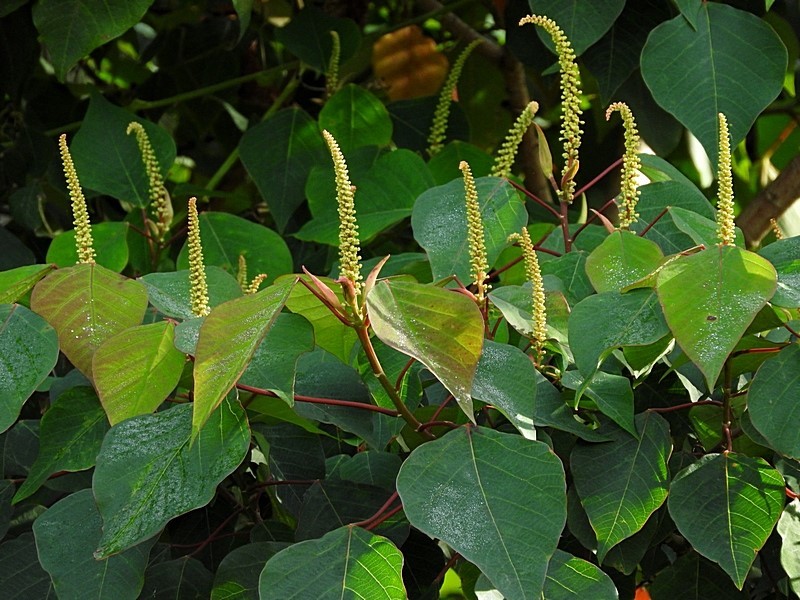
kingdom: Plantae
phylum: Tracheophyta
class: Magnoliopsida
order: Malpighiales
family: Euphorbiaceae
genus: Homalanthus
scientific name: Homalanthus populifolius
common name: Queensland poplar
